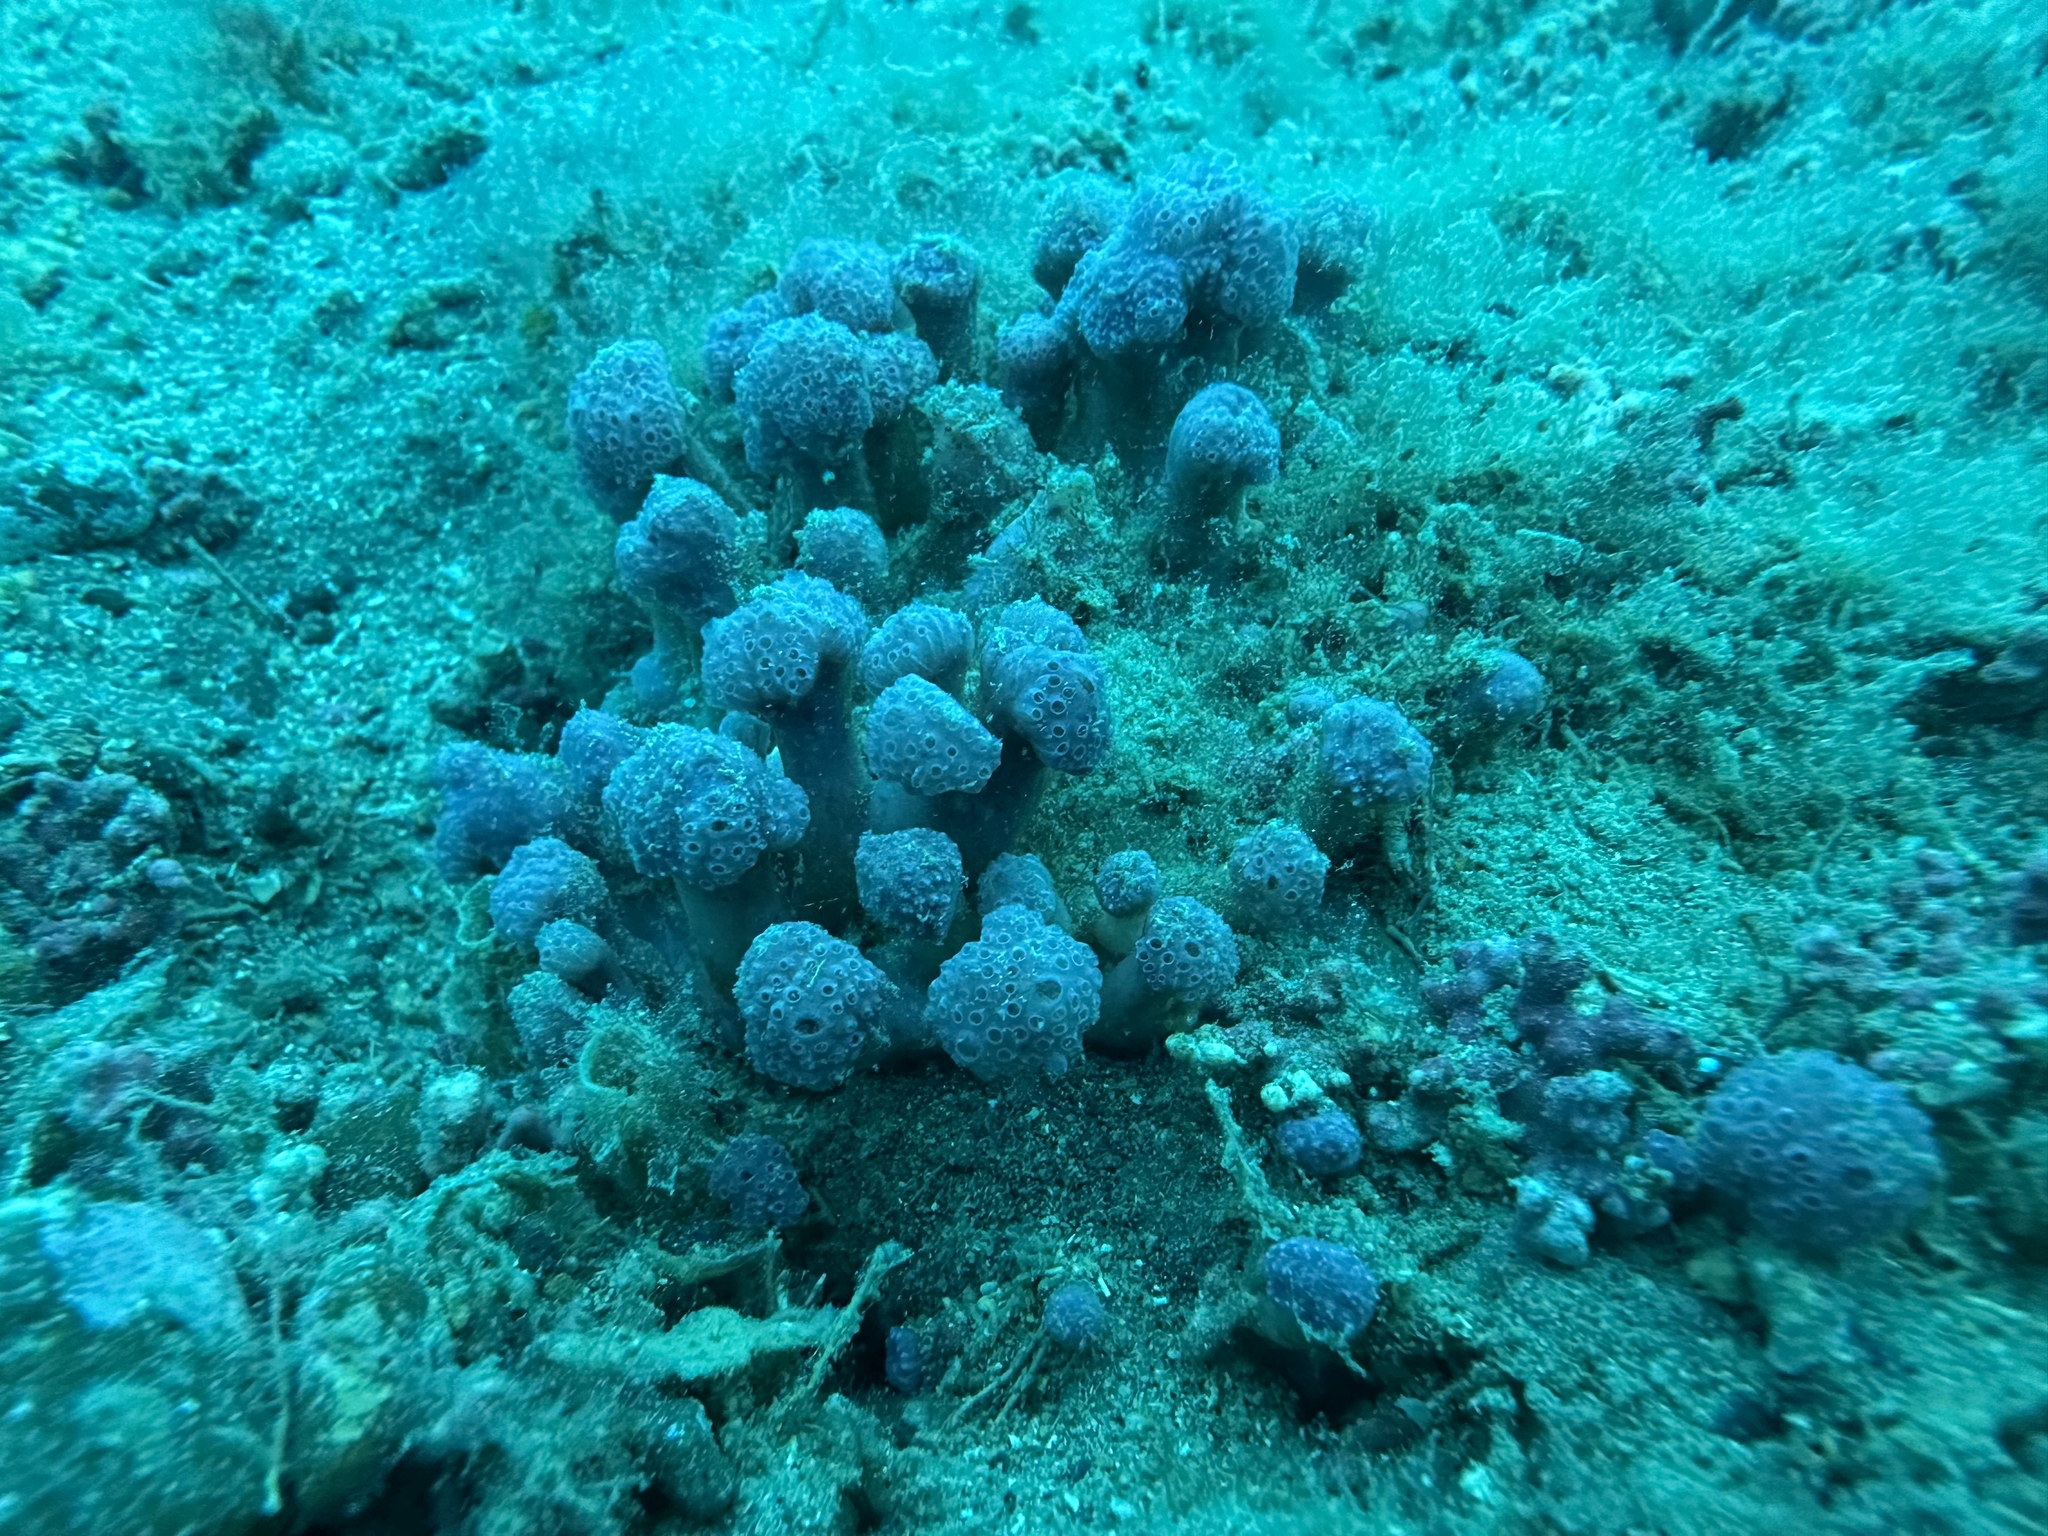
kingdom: Animalia
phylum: Chordata
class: Ascidiacea
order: Aplousobranchia
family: Holozoidae
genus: Hypsistozoa
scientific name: Hypsistozoa fasmeriana
